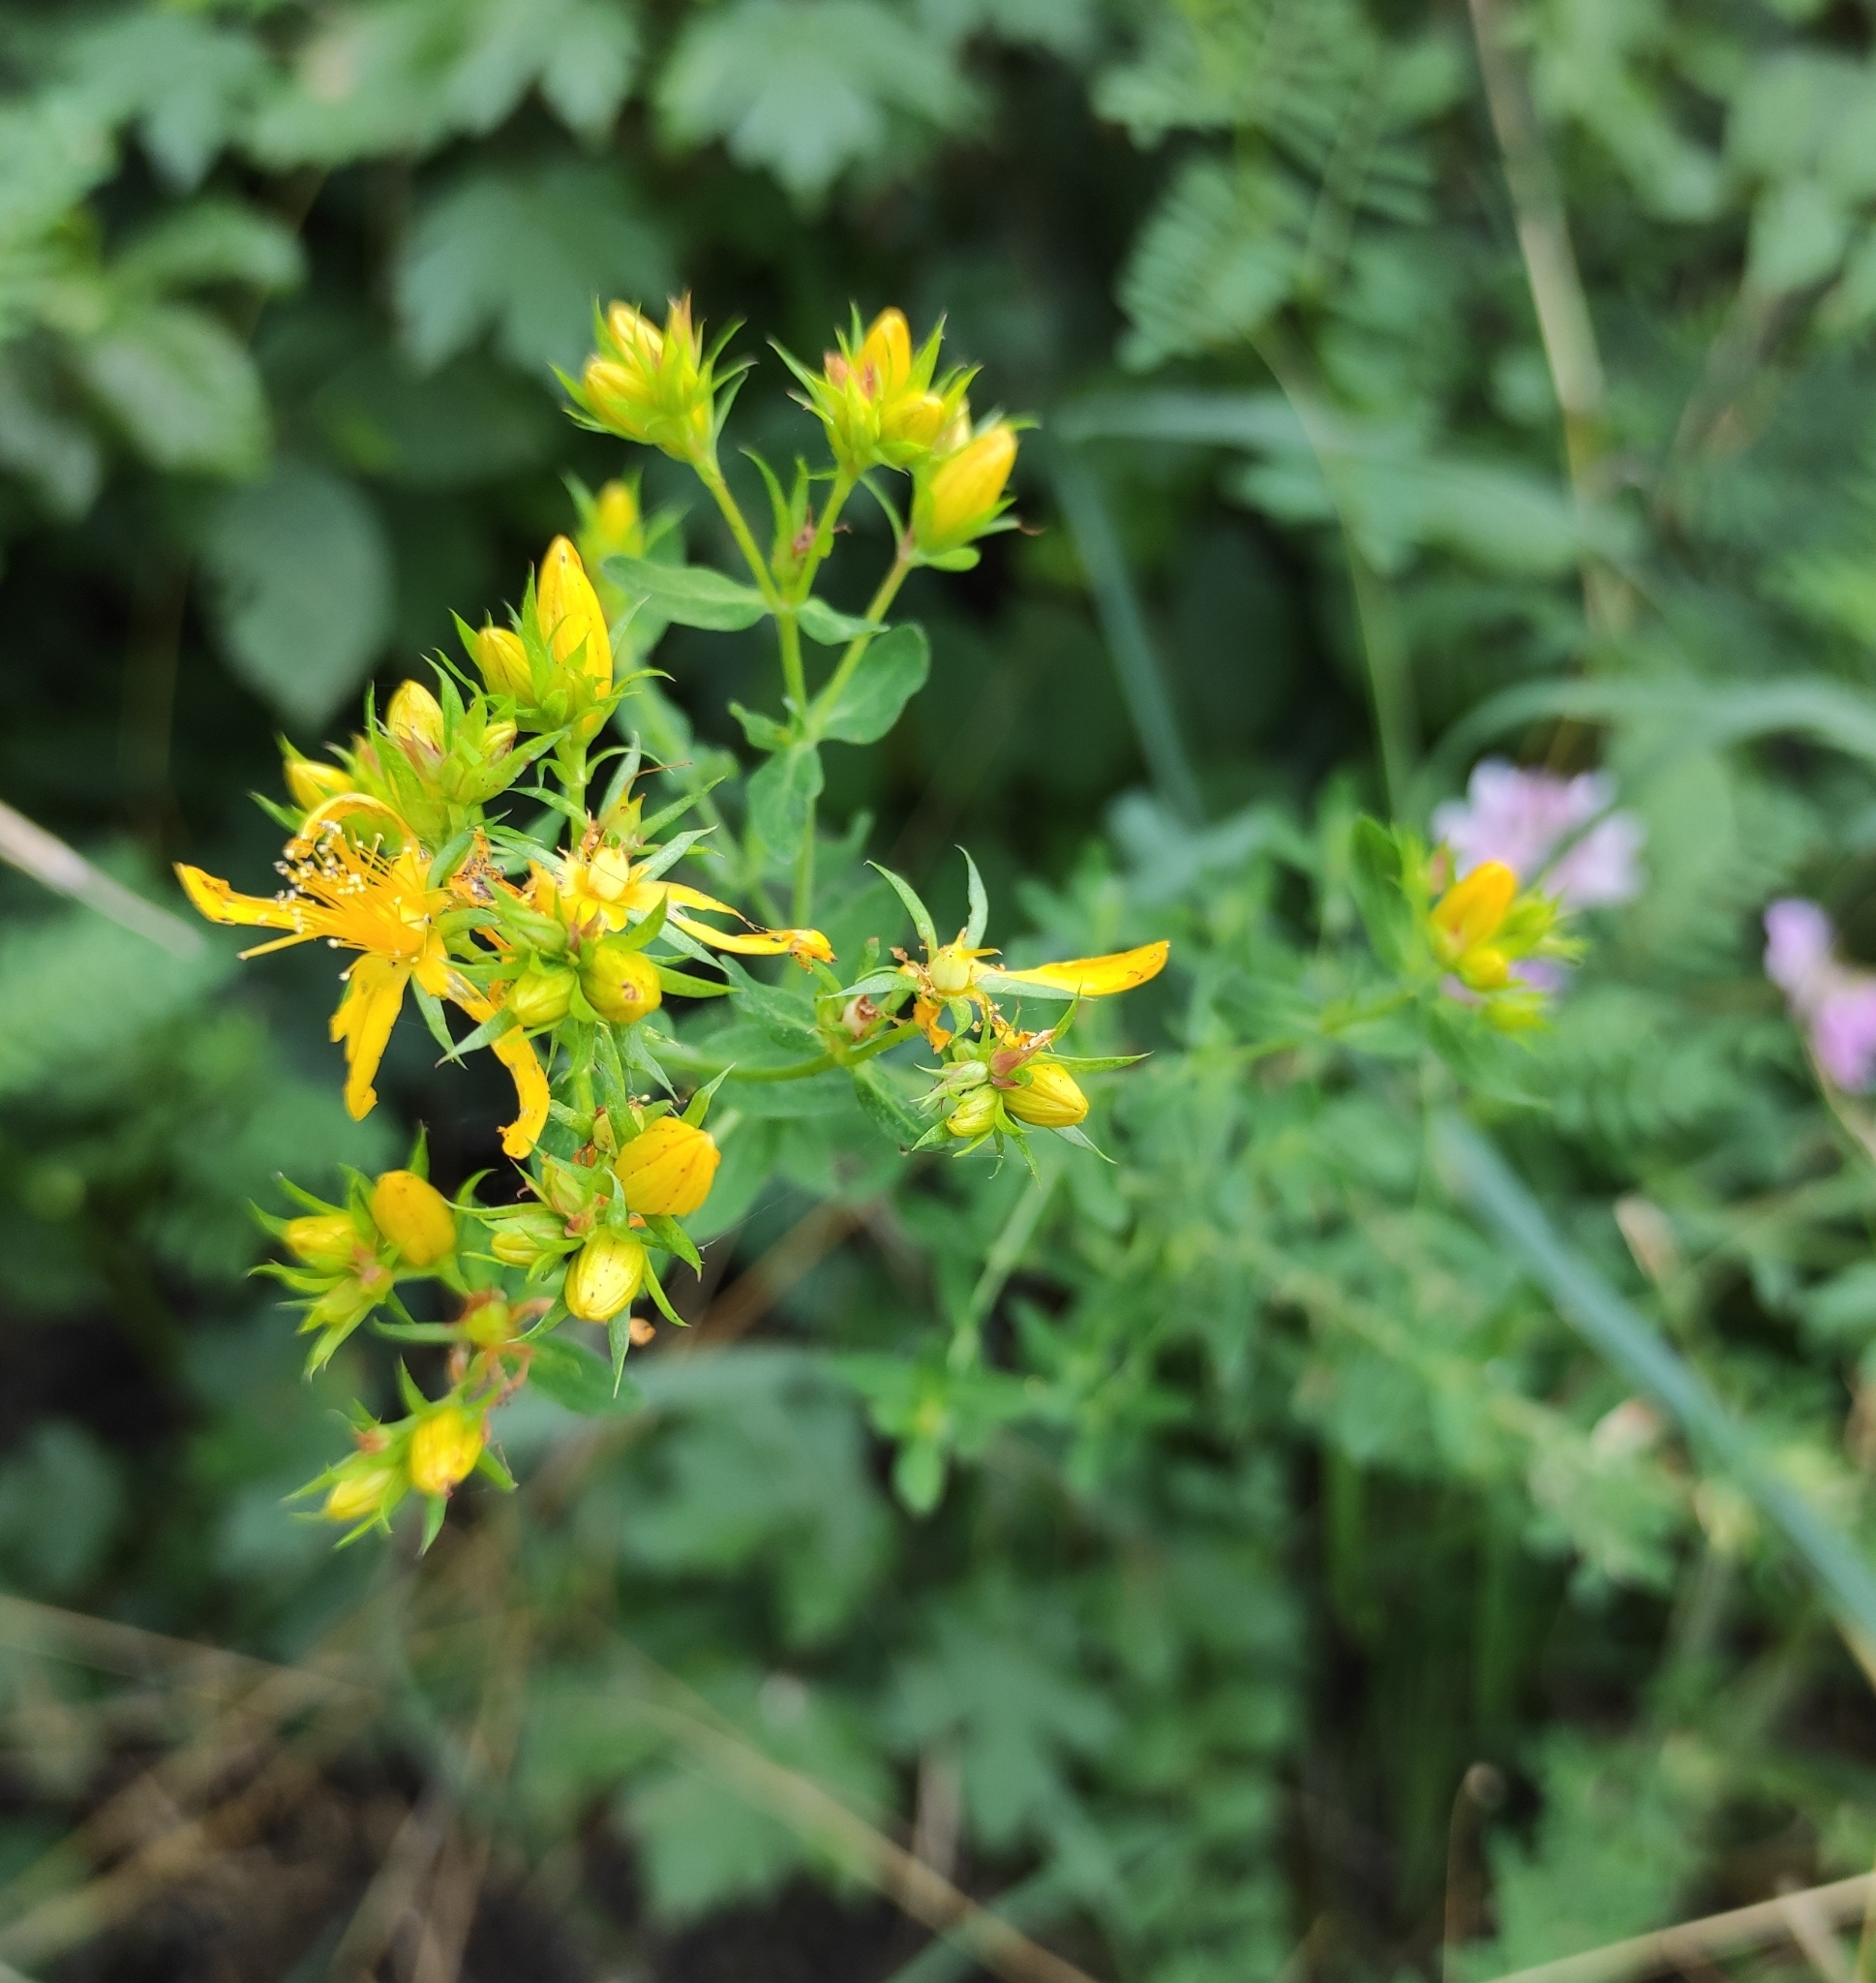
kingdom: Plantae
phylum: Tracheophyta
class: Magnoliopsida
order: Malpighiales
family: Hypericaceae
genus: Hypericum
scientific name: Hypericum perforatum
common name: Common st. johnswort
